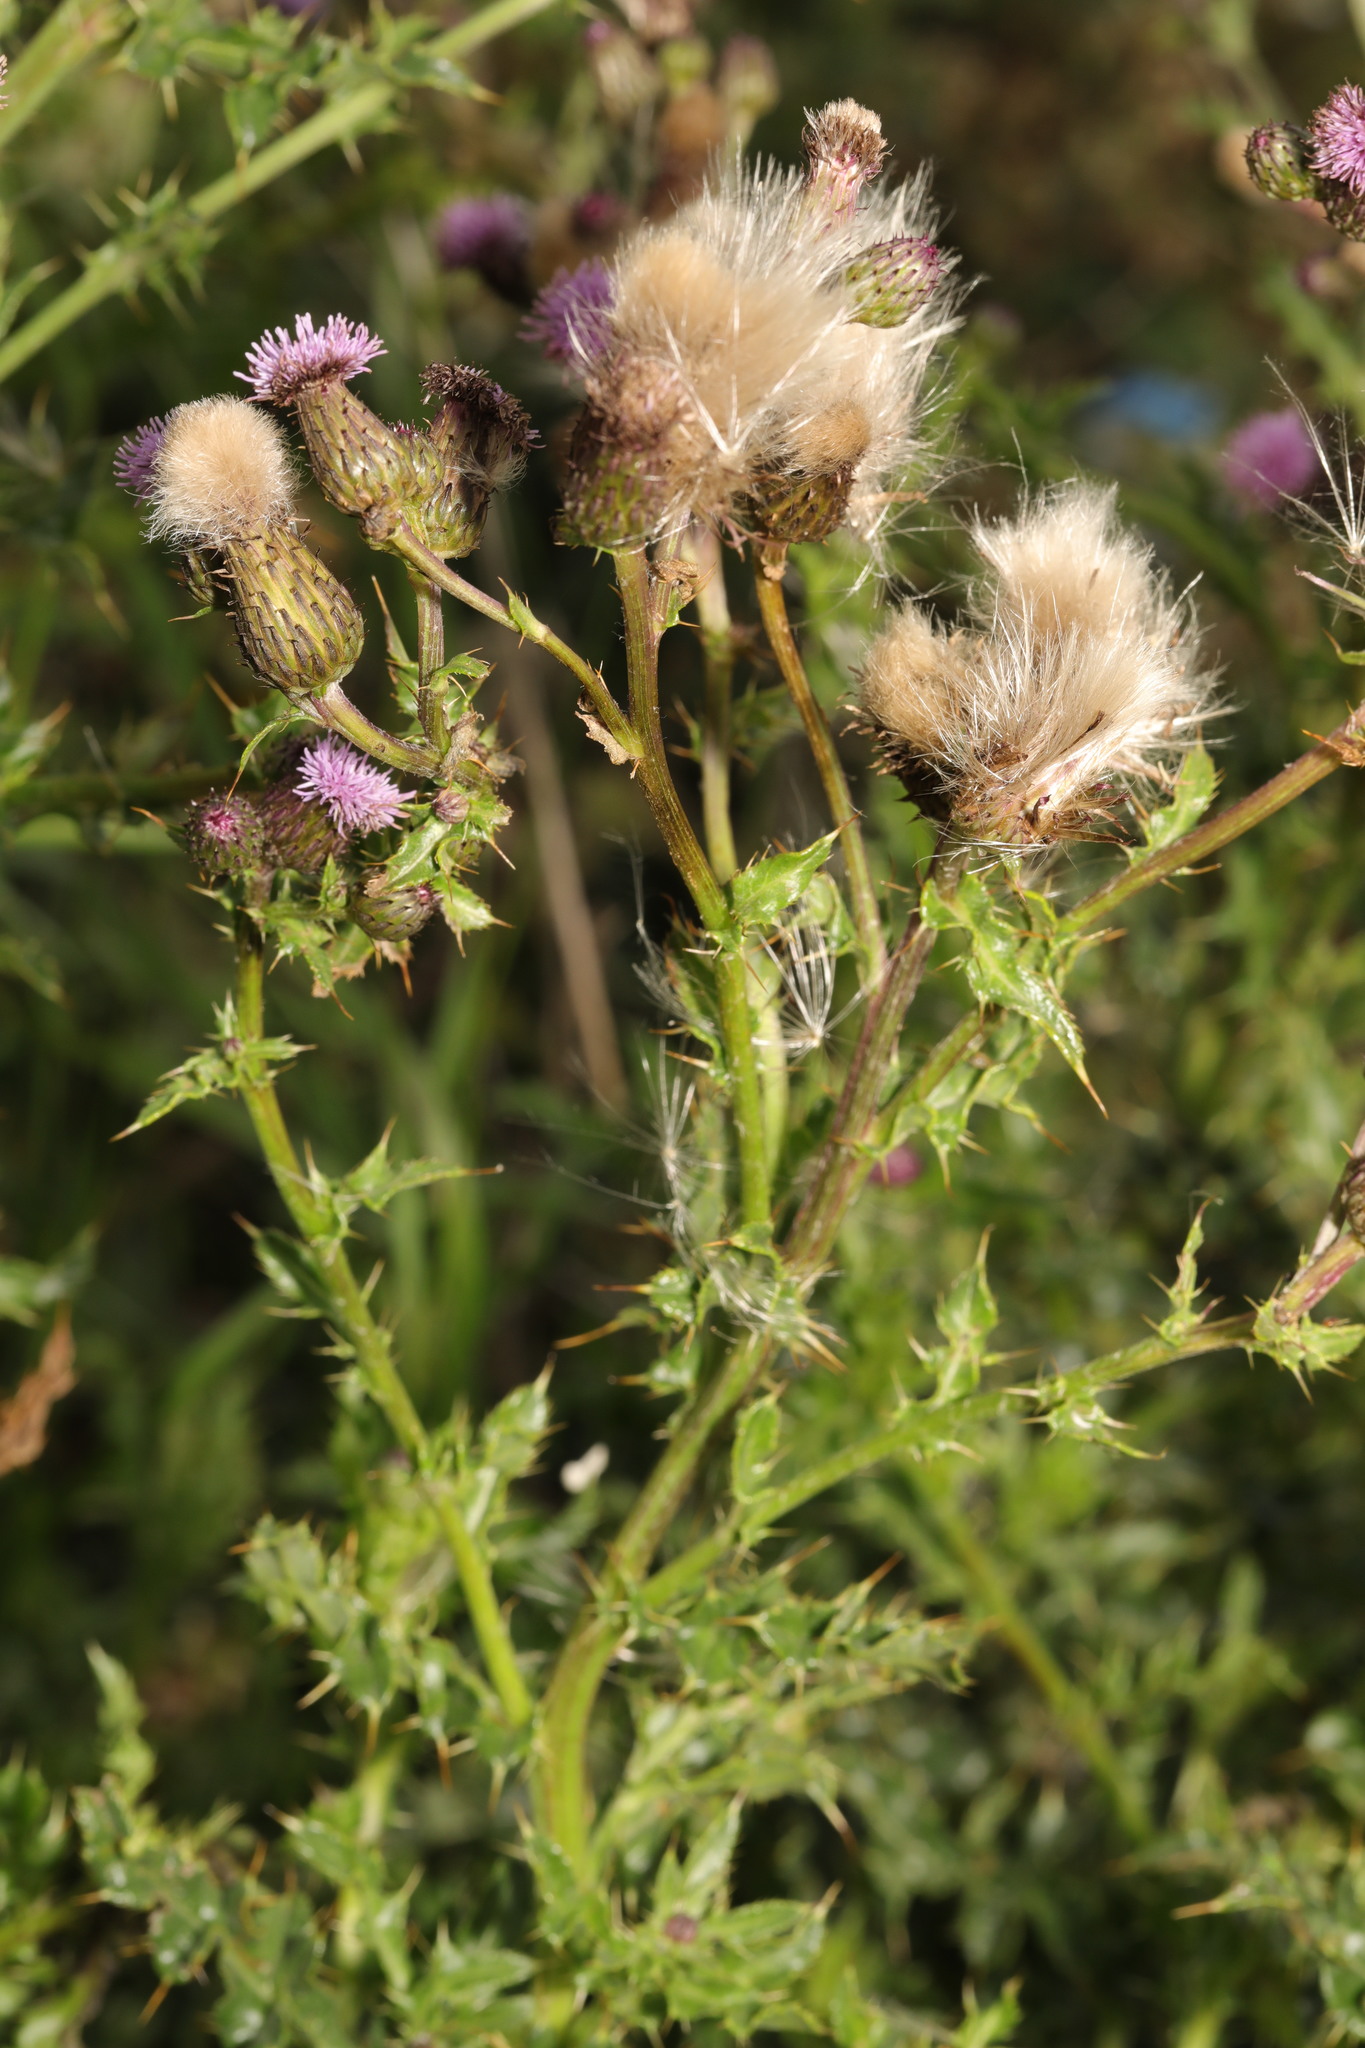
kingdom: Plantae
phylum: Tracheophyta
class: Magnoliopsida
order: Asterales
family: Asteraceae
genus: Cirsium
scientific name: Cirsium arvense
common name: Creeping thistle
